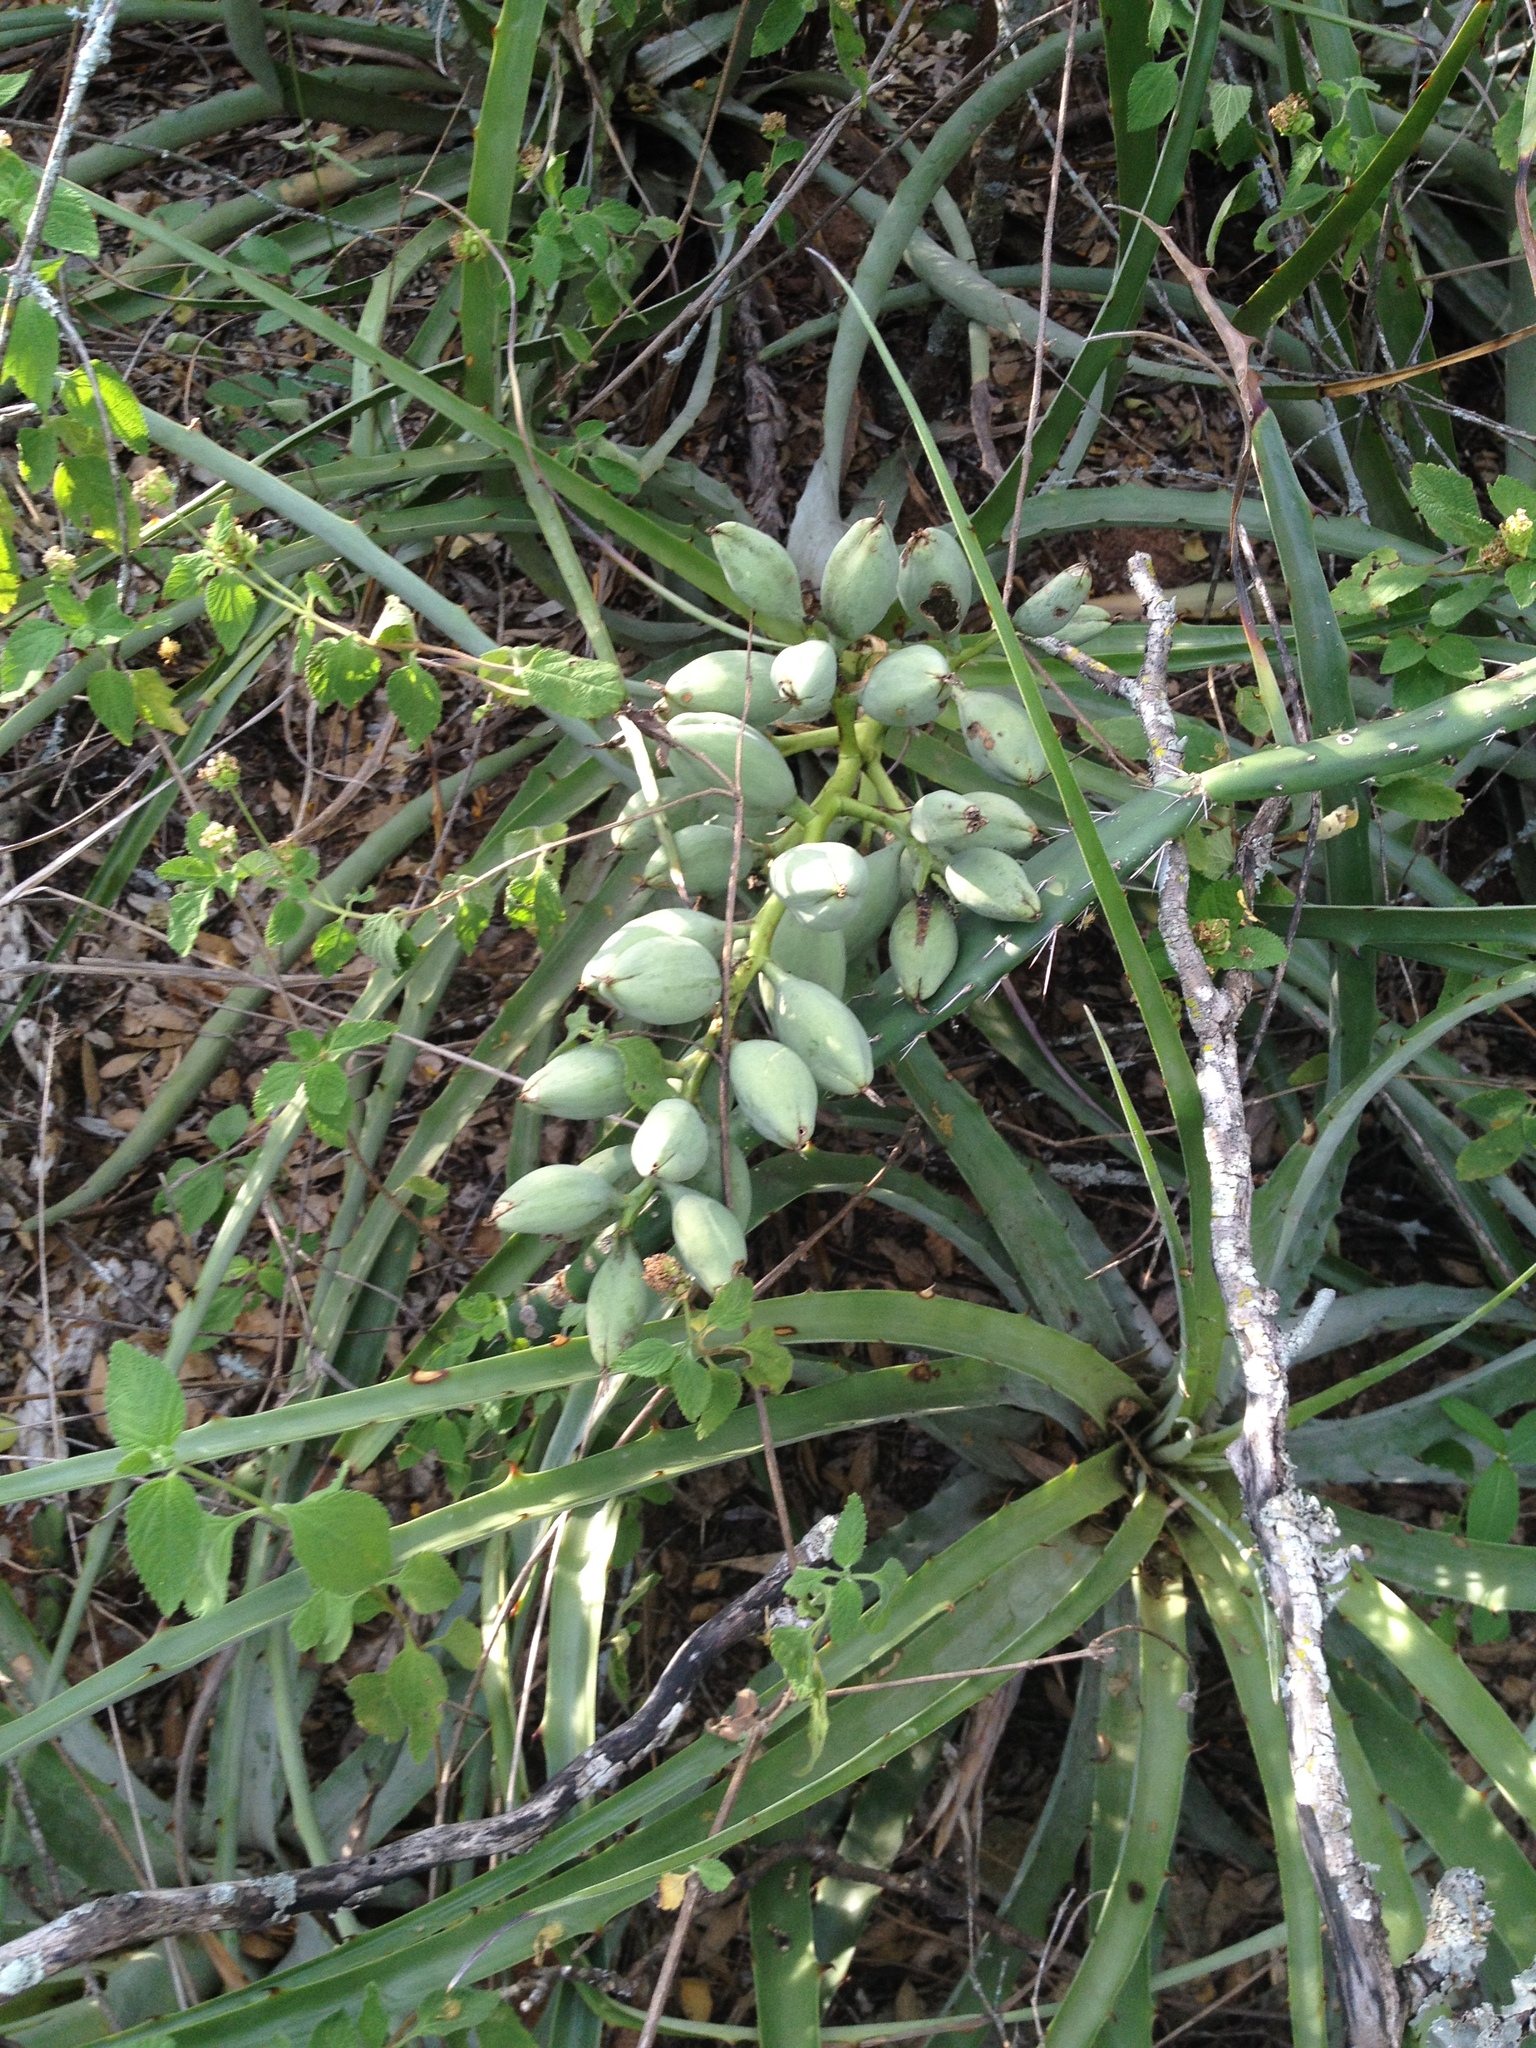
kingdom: Plantae
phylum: Tracheophyta
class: Liliopsida
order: Poales
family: Bromeliaceae
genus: Bromelia
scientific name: Bromelia hieronymi
